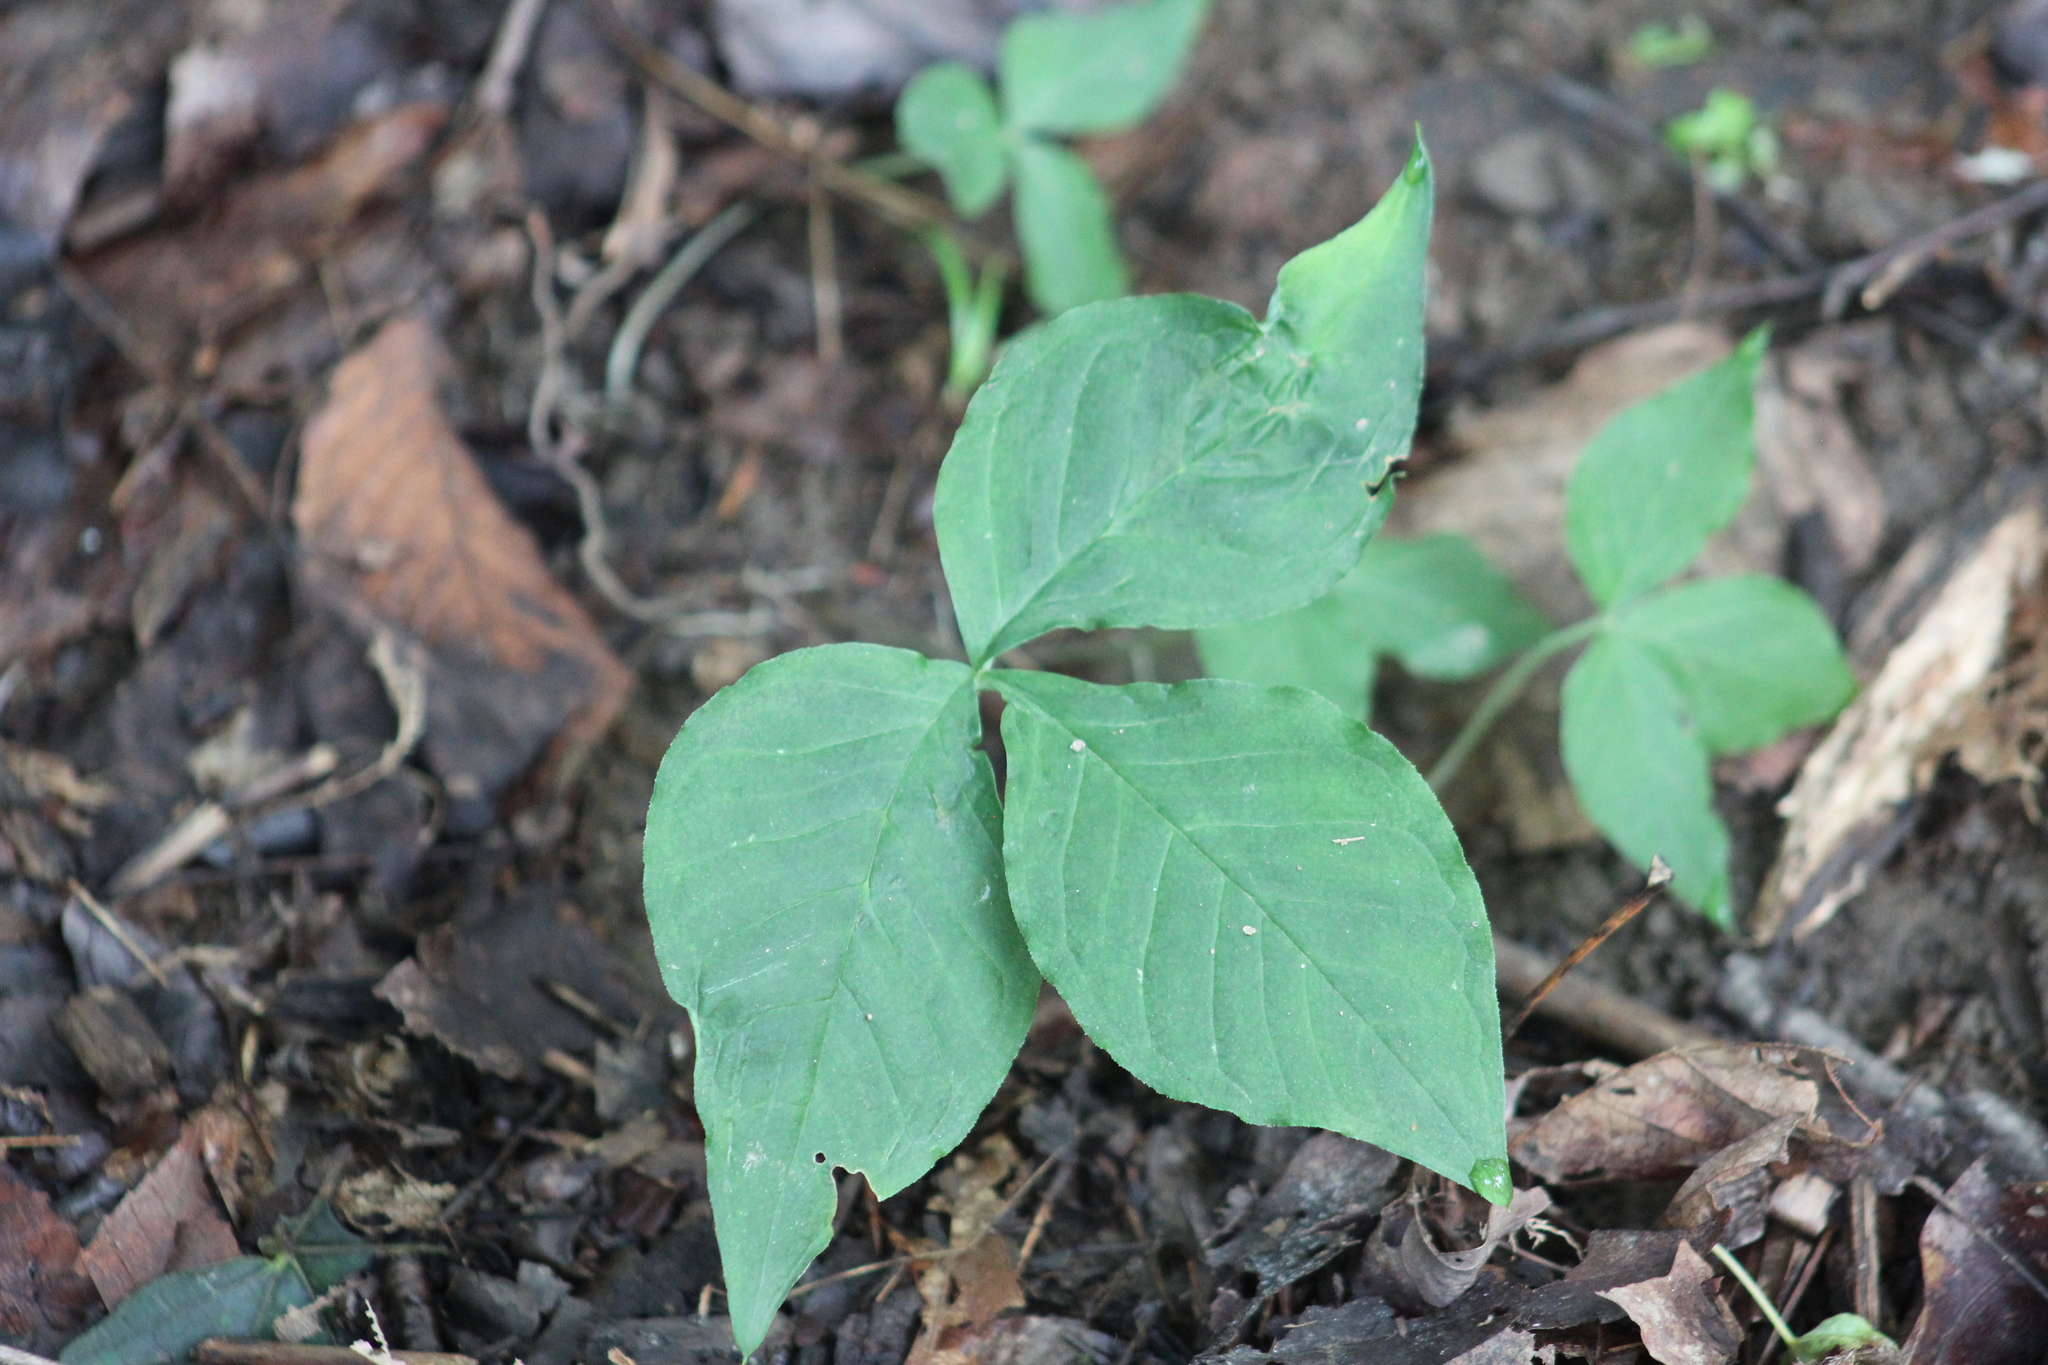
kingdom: Plantae
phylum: Tracheophyta
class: Liliopsida
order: Alismatales
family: Araceae
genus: Arisaema
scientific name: Arisaema triphyllum
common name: Jack-in-the-pulpit
